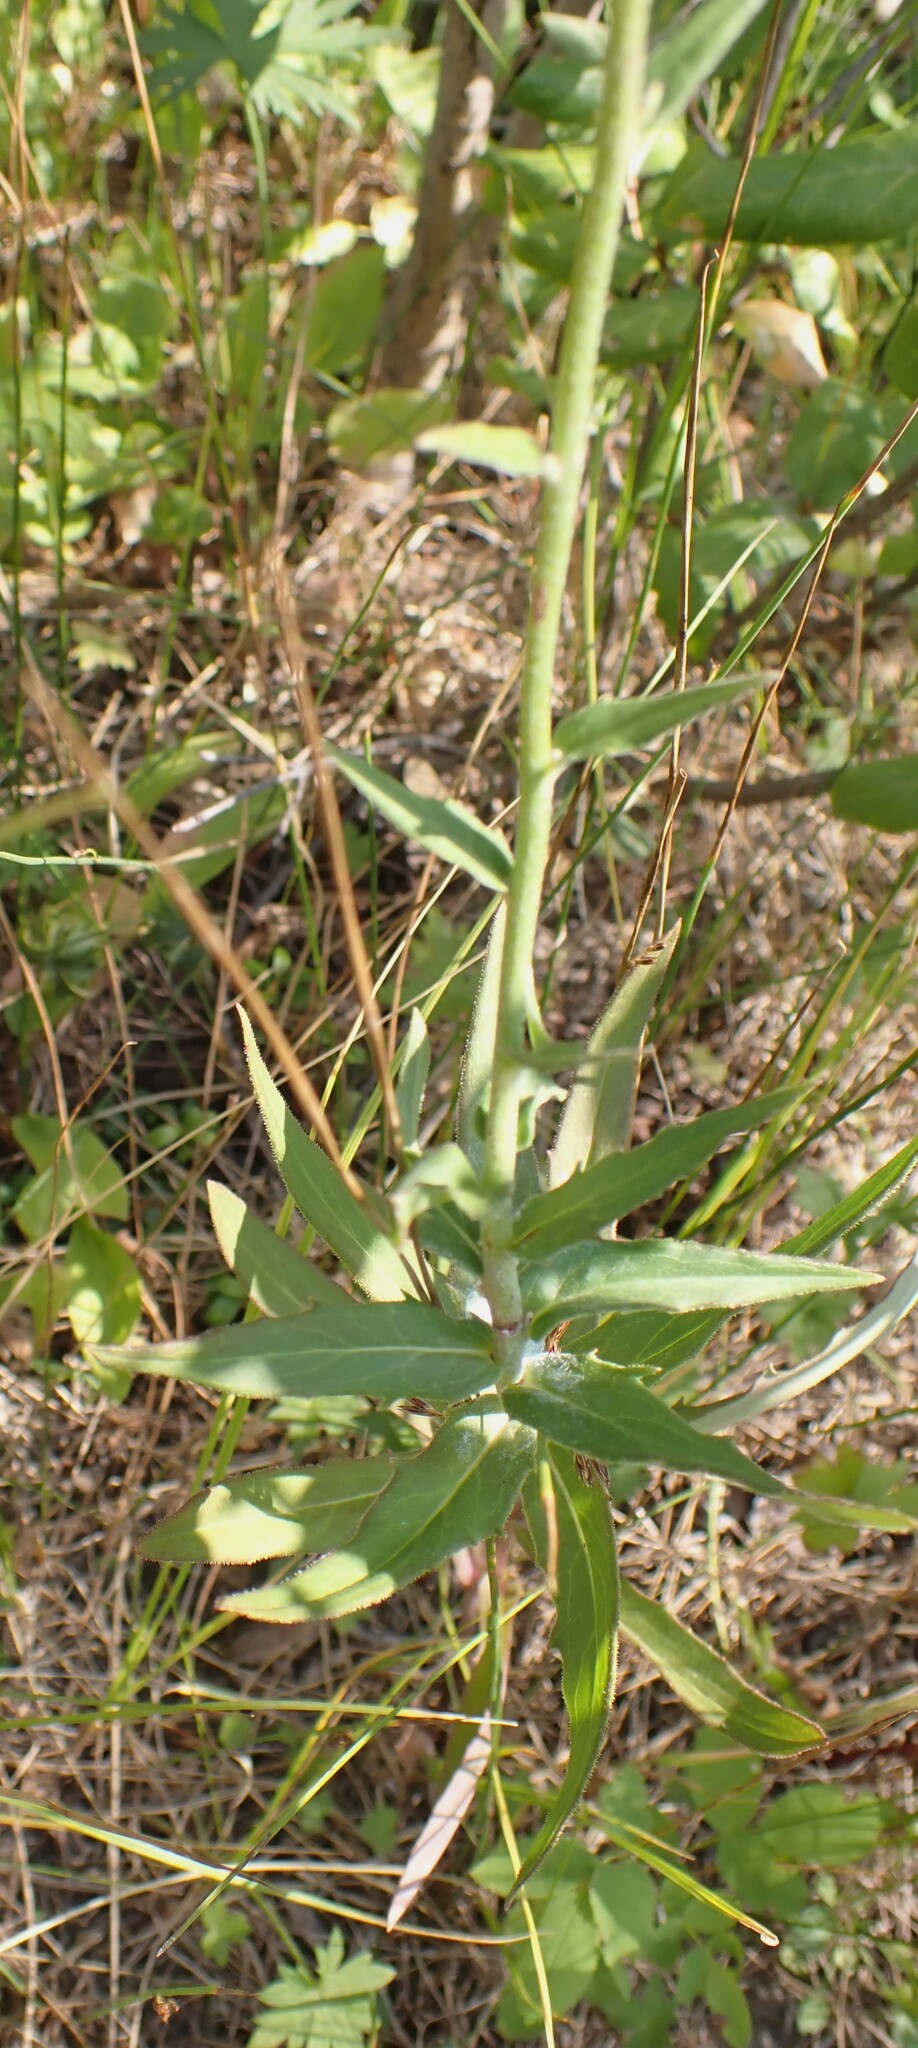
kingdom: Plantae
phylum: Tracheophyta
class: Magnoliopsida
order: Asterales
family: Asteraceae
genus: Hieracium
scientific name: Hieracium umbellatum
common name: Northern hawkweed
